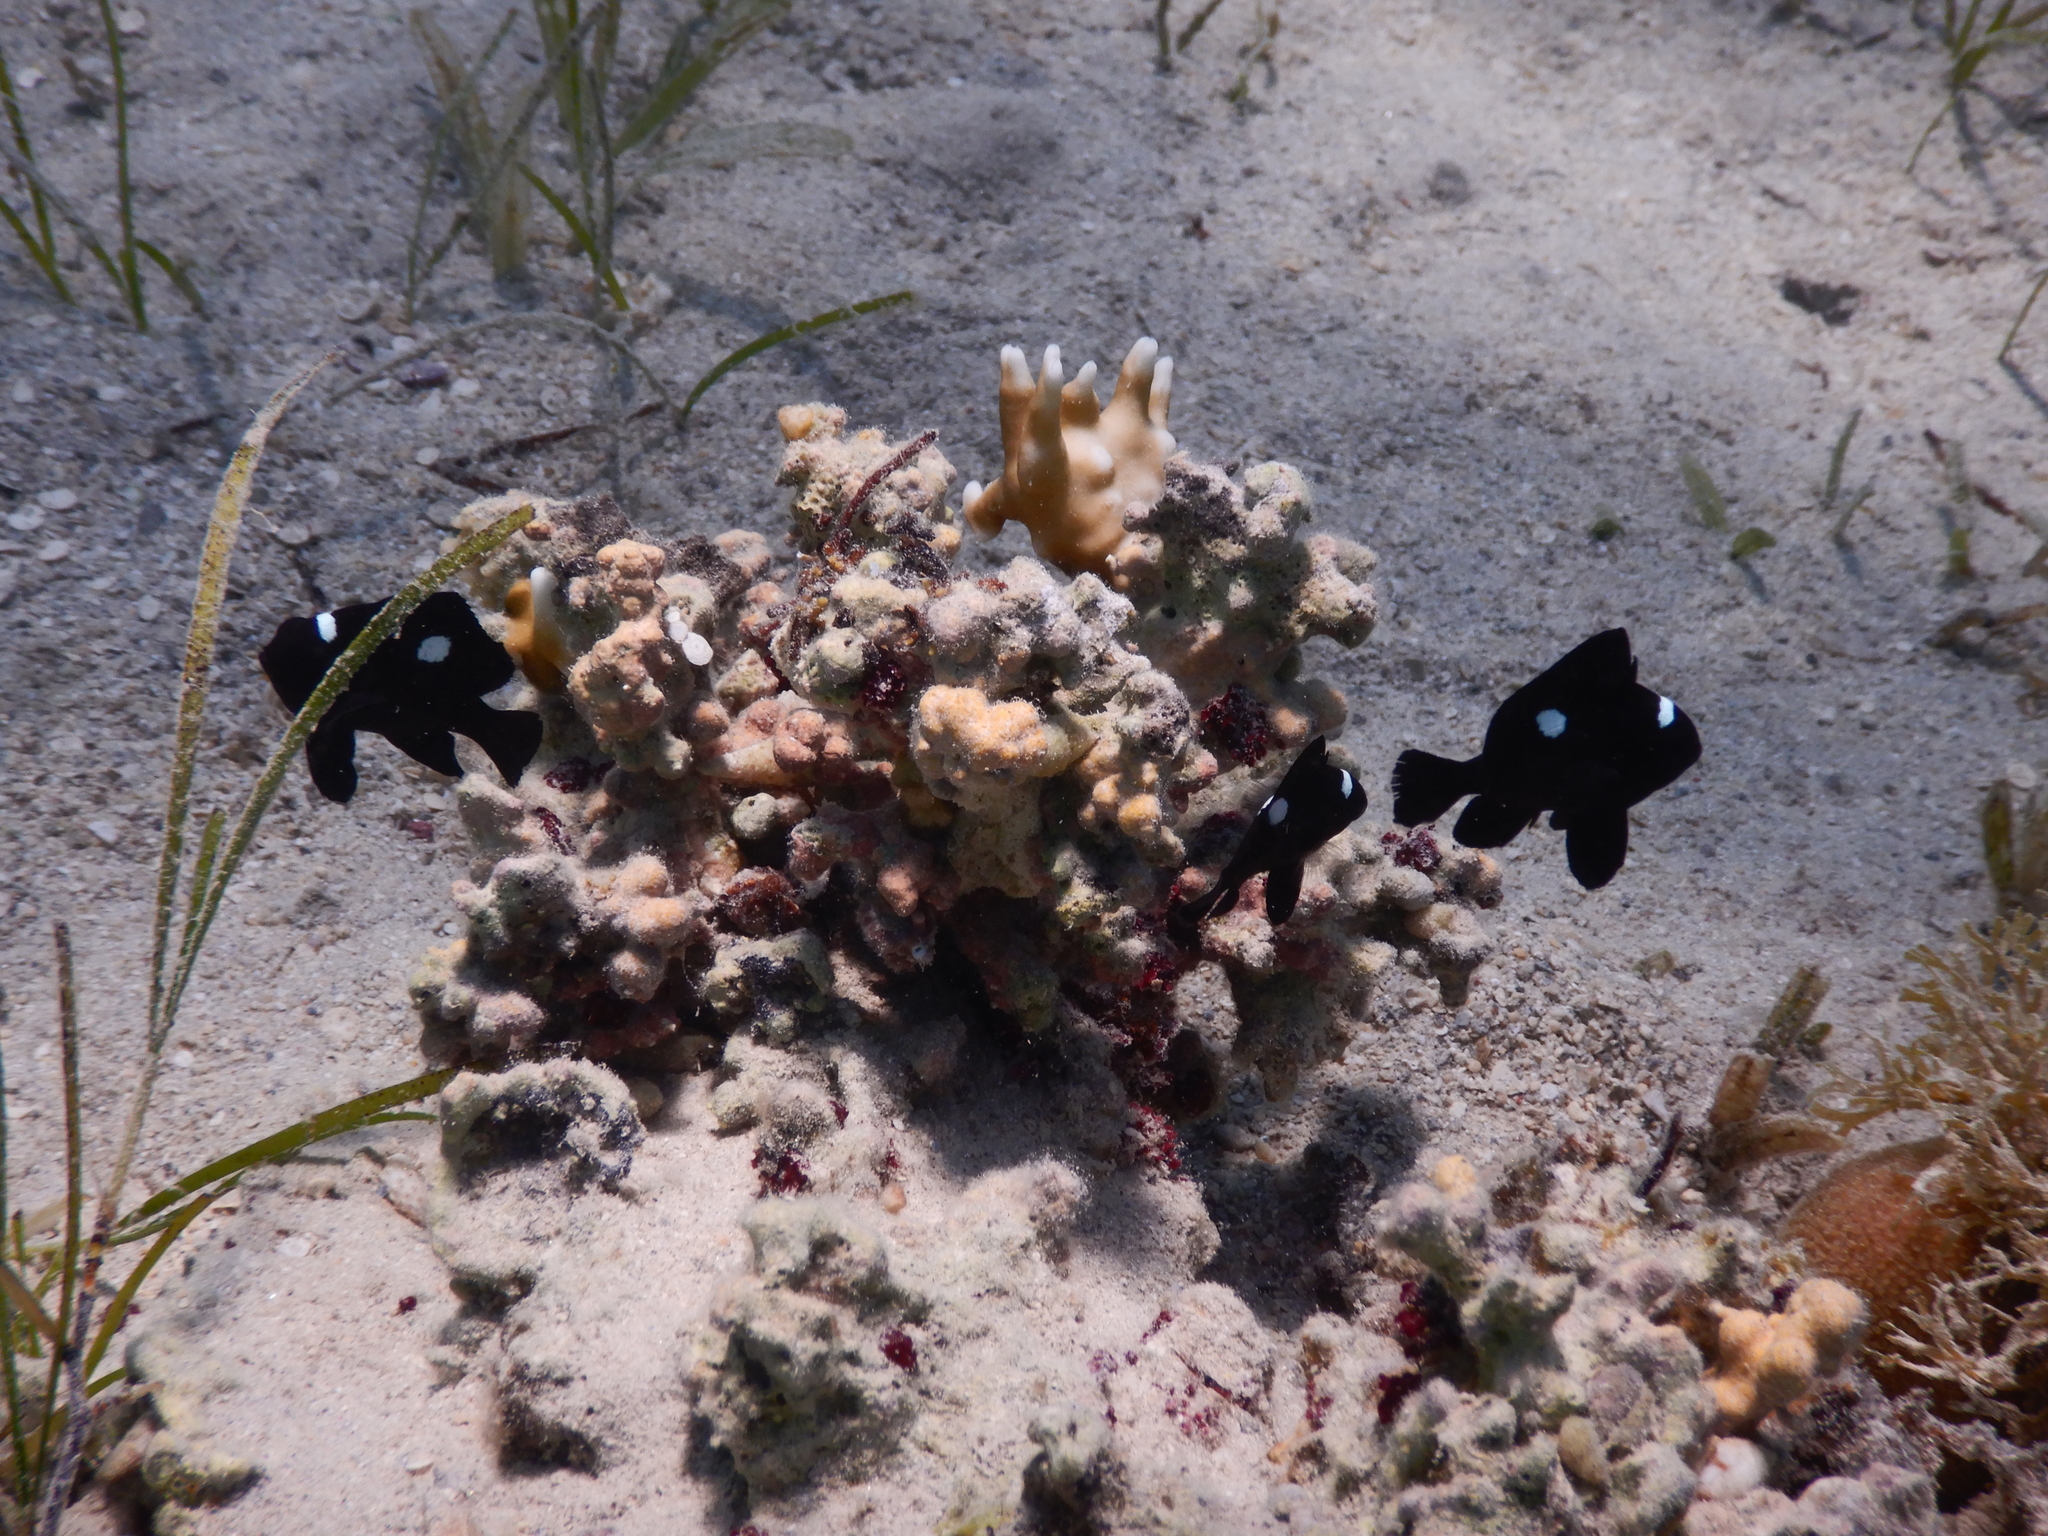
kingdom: Animalia
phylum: Chordata
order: Perciformes
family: Pomacentridae
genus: Dascyllus
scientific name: Dascyllus trimaculatus
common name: Threespot dascyllus
